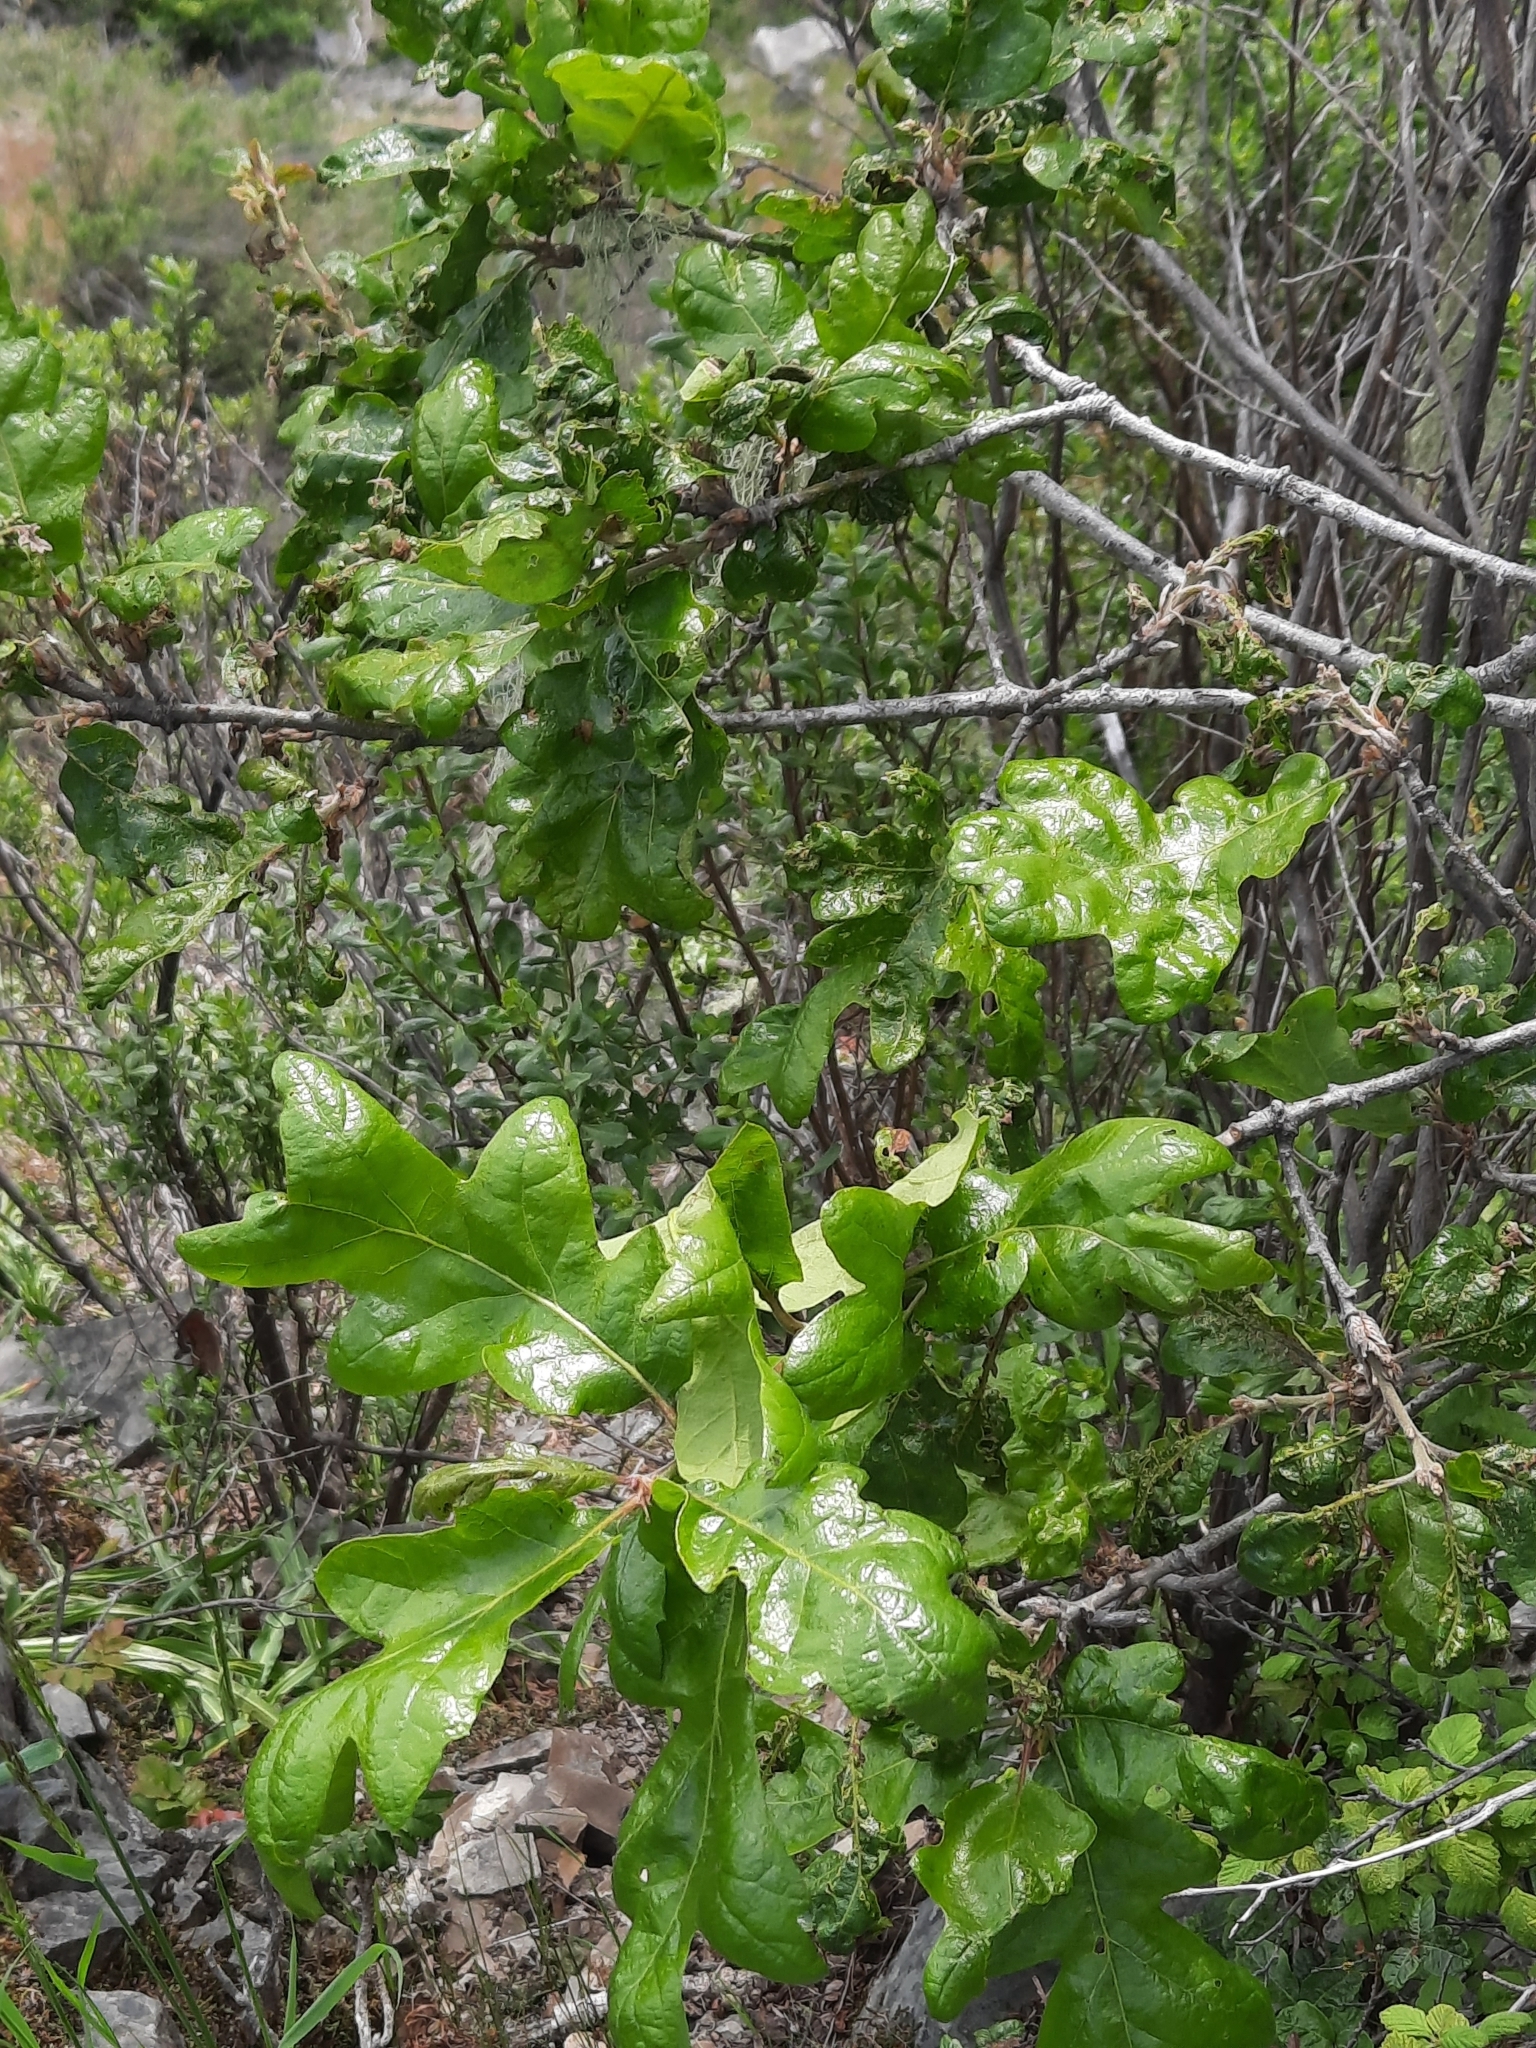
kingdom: Plantae
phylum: Tracheophyta
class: Magnoliopsida
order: Fagales
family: Fagaceae
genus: Quercus
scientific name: Quercus garryana
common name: Garry oak
